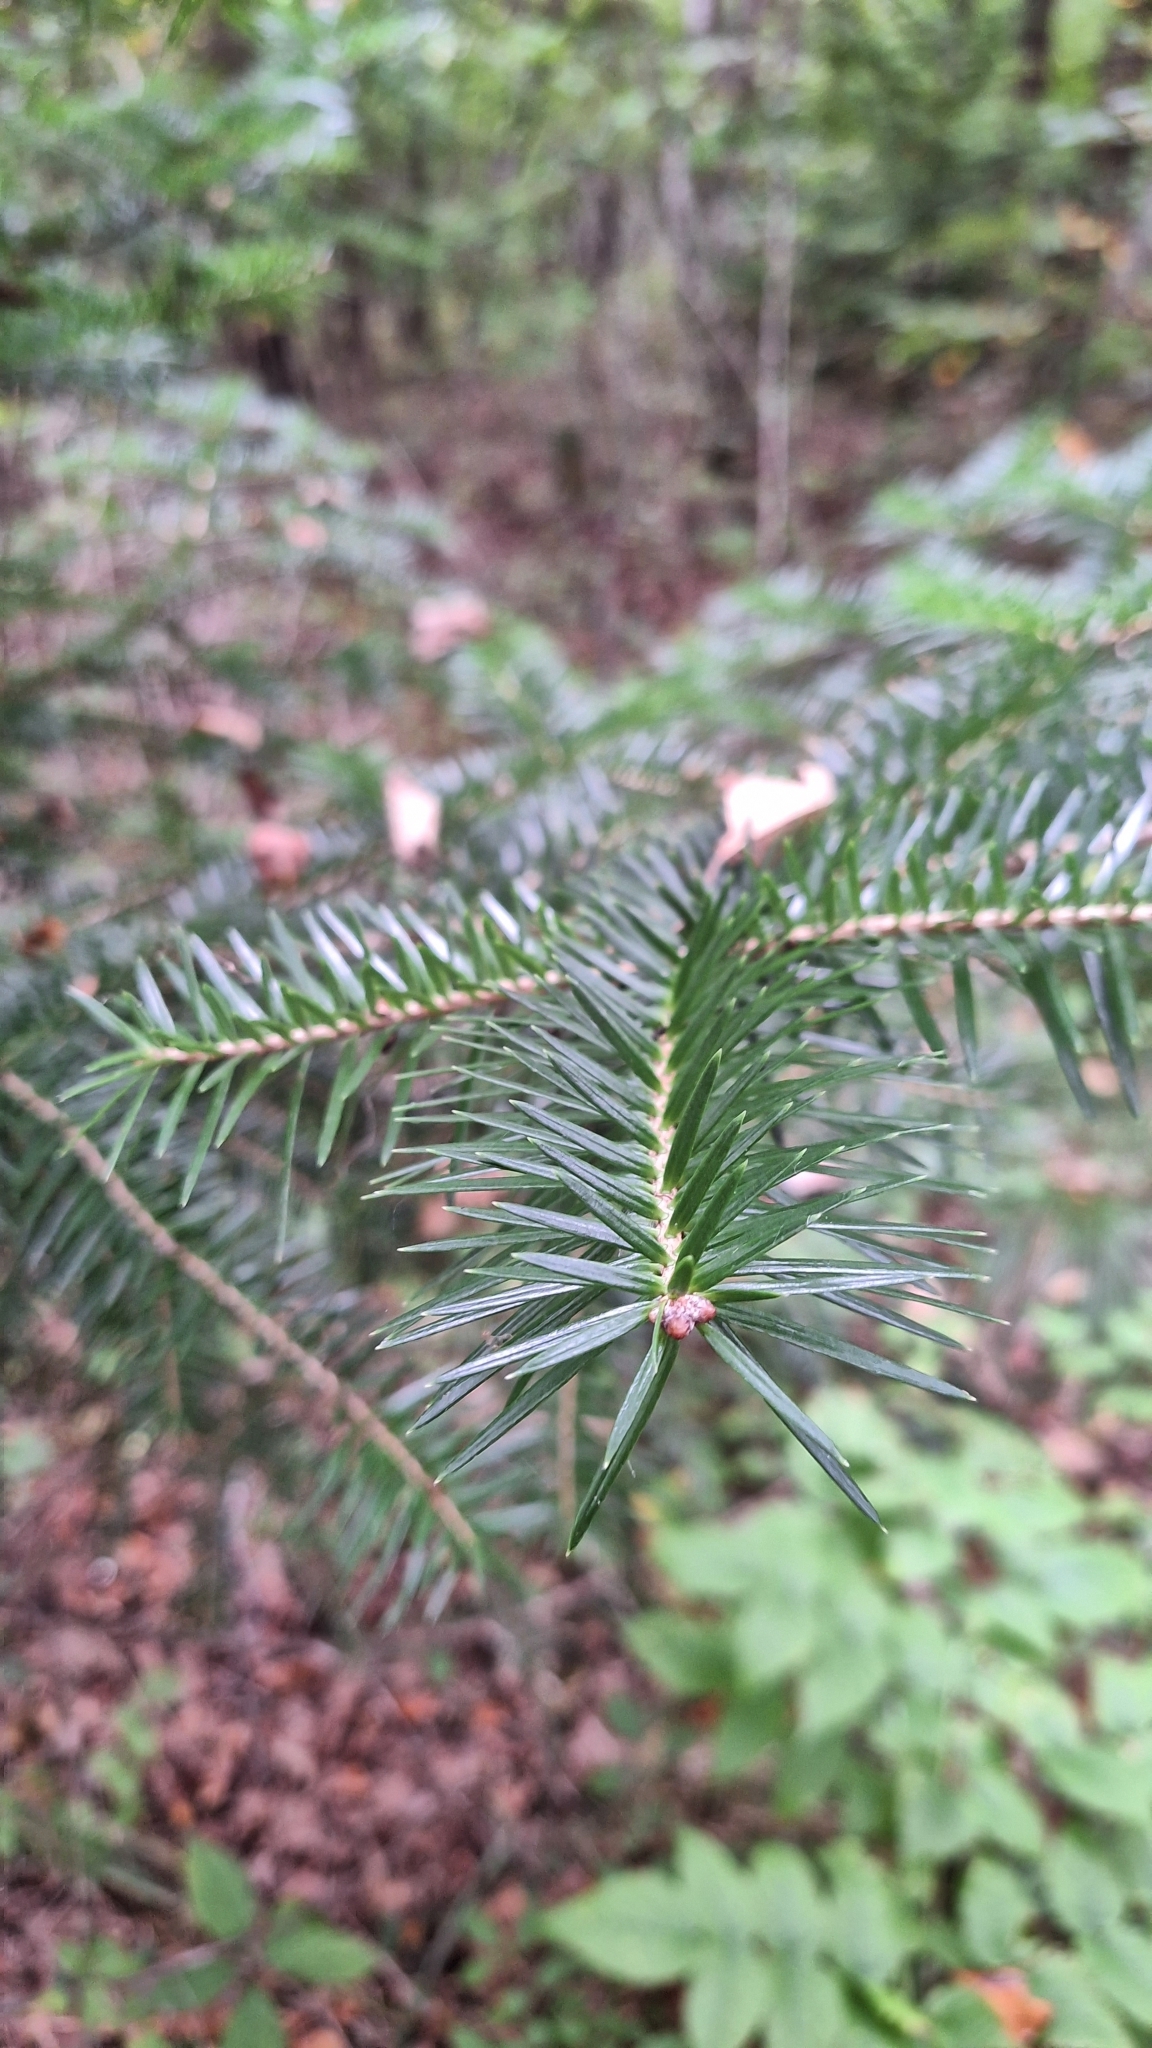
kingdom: Plantae
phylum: Tracheophyta
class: Pinopsida
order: Pinales
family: Pinaceae
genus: Abies
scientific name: Abies holophylla
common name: Manchurian fir
